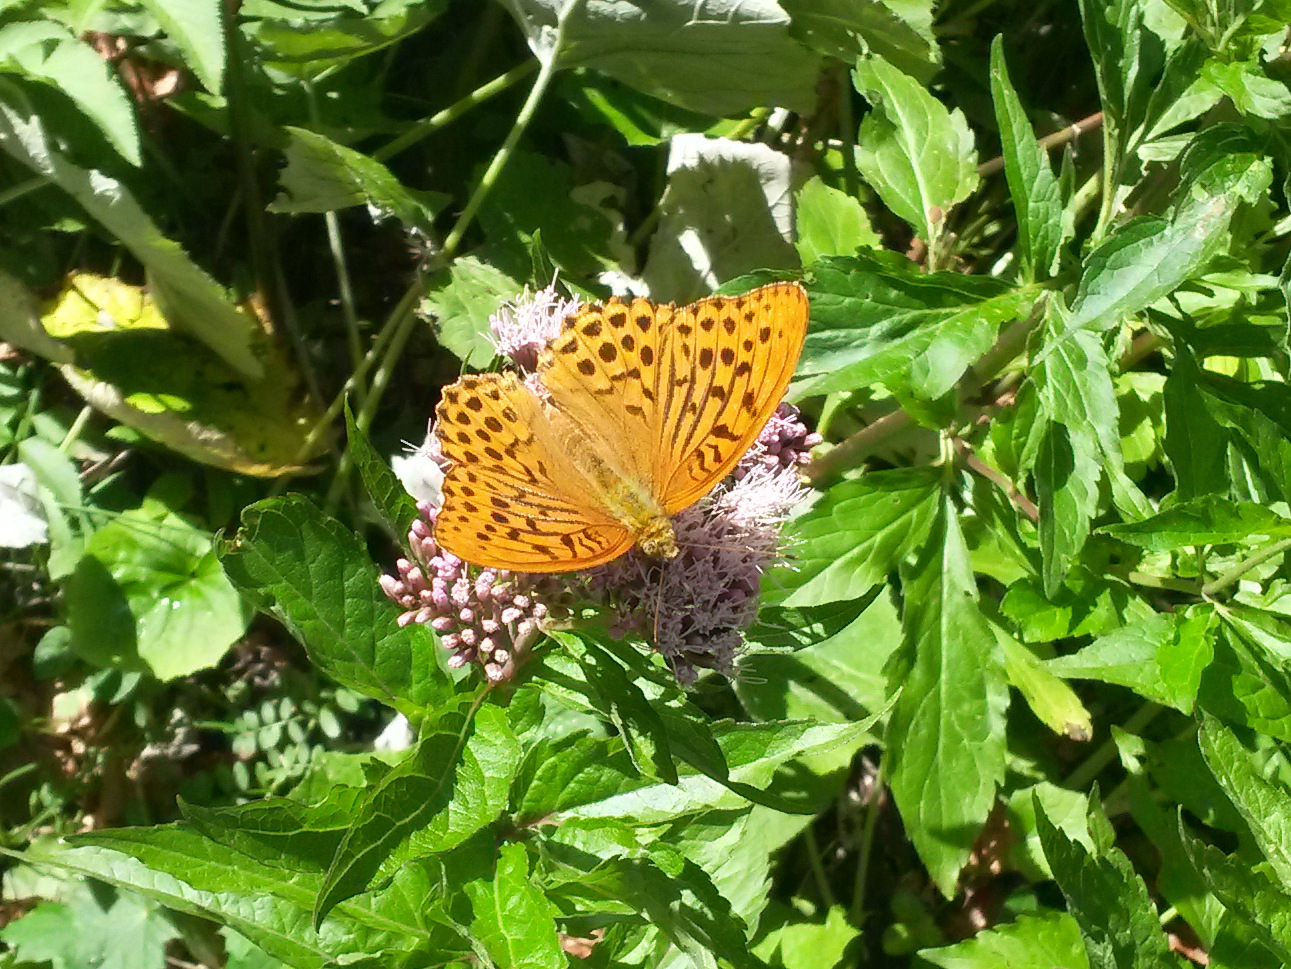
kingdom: Animalia
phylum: Arthropoda
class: Insecta
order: Lepidoptera
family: Nymphalidae
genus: Argynnis
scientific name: Argynnis paphia
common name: Silver-washed fritillary
